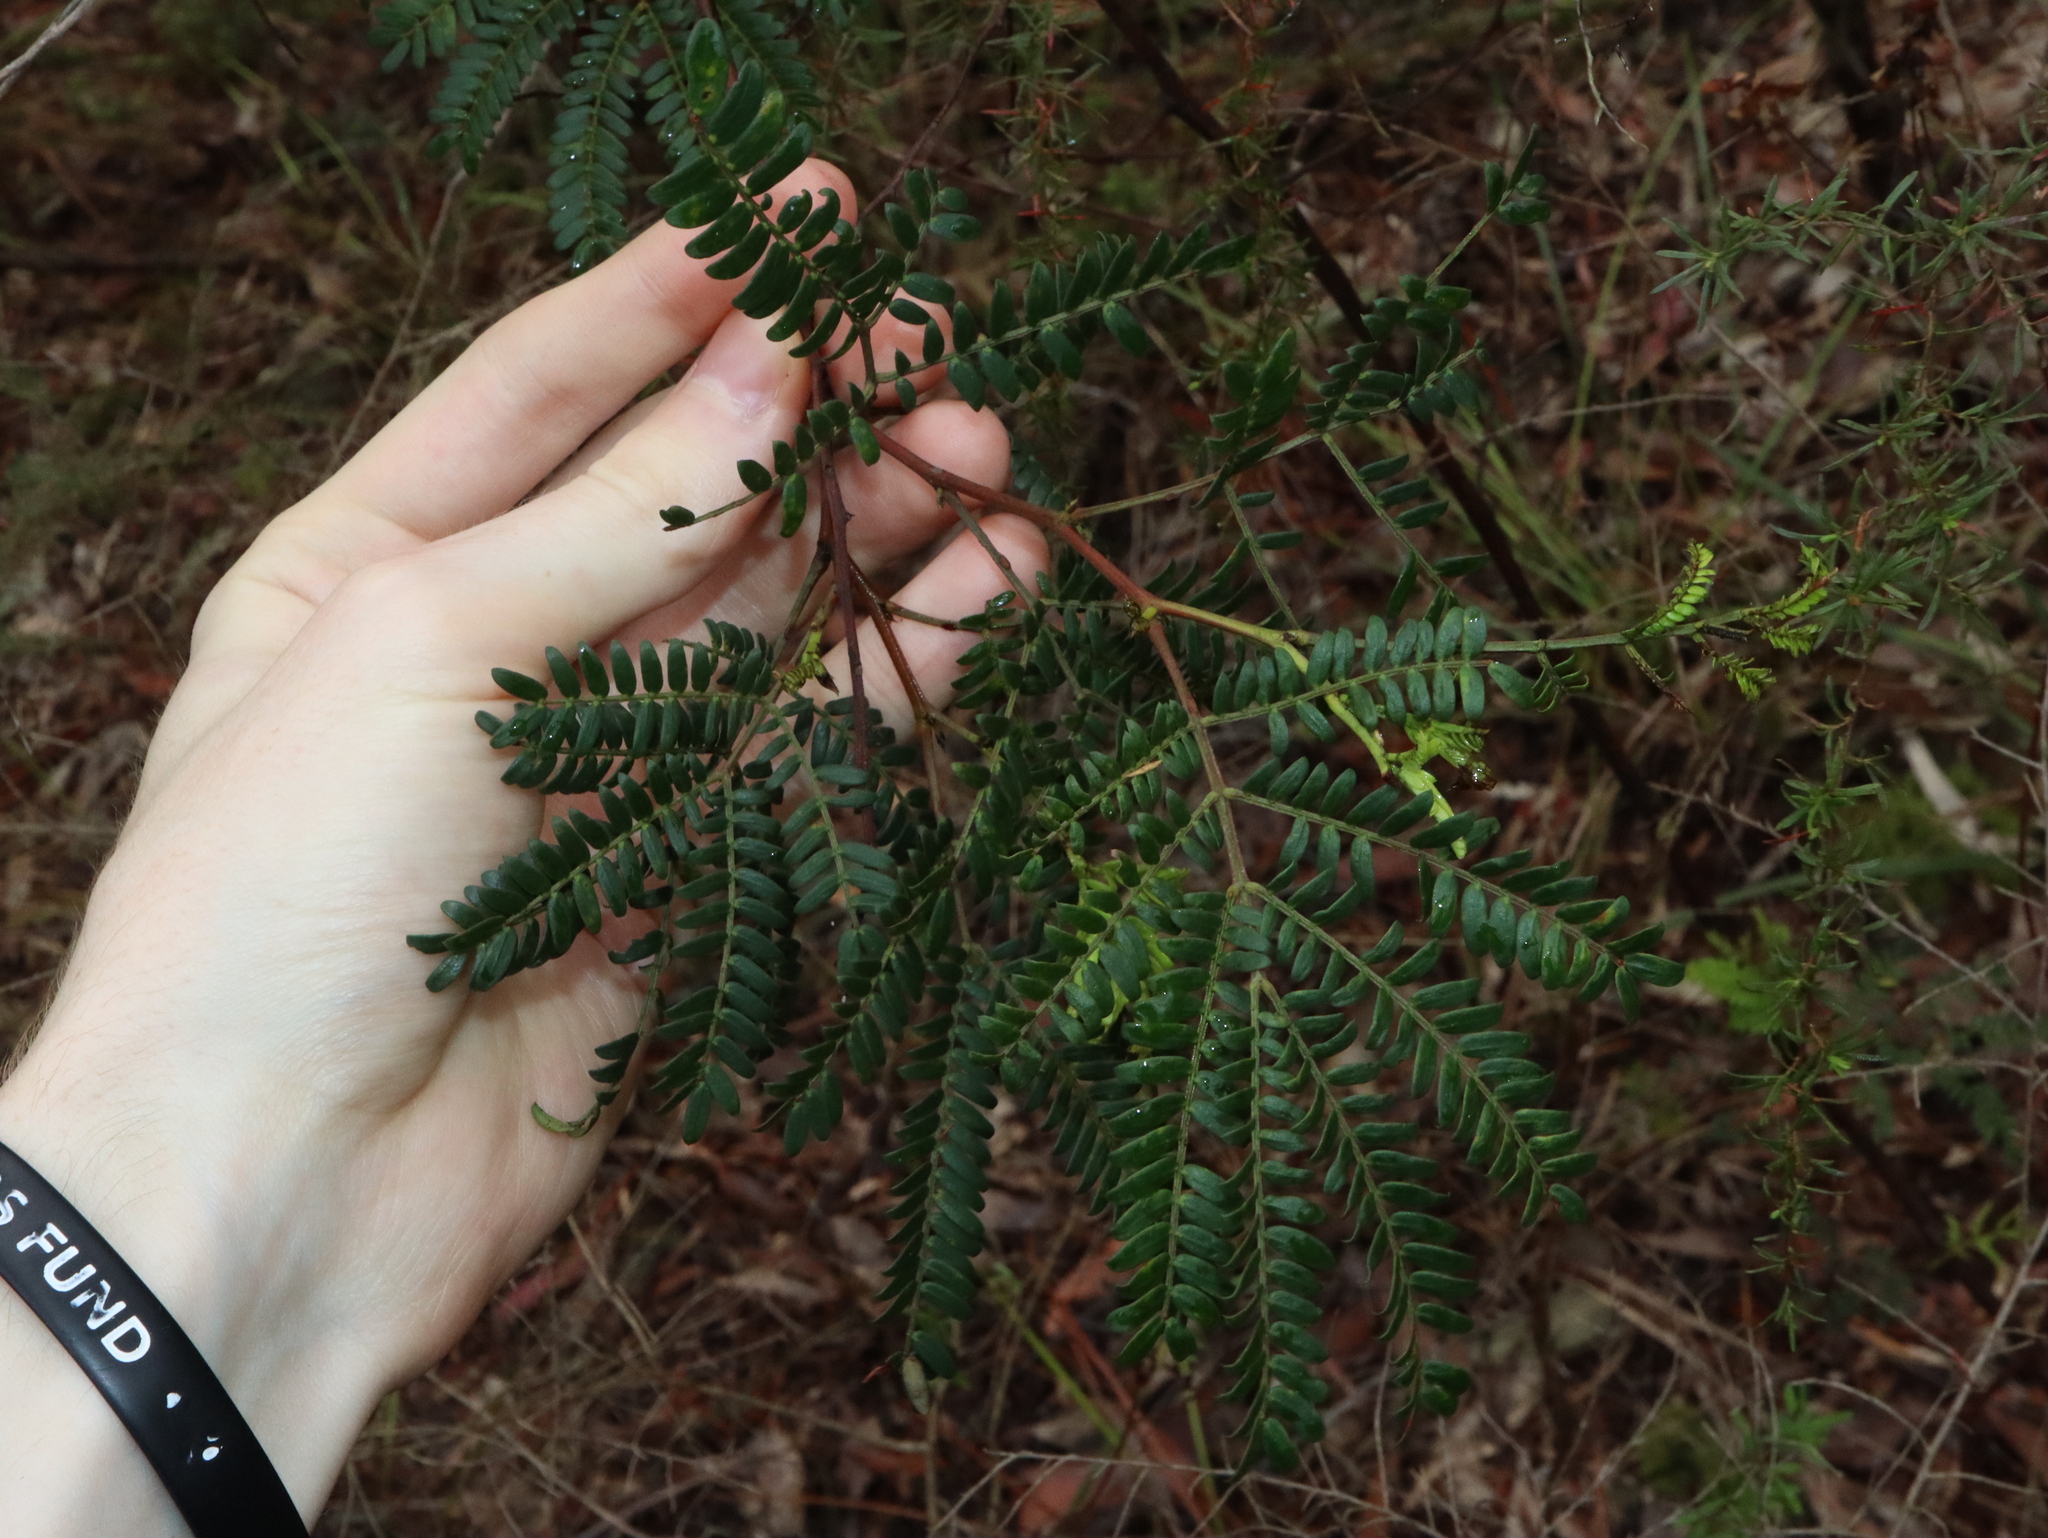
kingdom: Plantae
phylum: Tracheophyta
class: Magnoliopsida
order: Fabales
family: Fabaceae
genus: Acacia
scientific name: Acacia terminalis
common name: Cedar wattle
